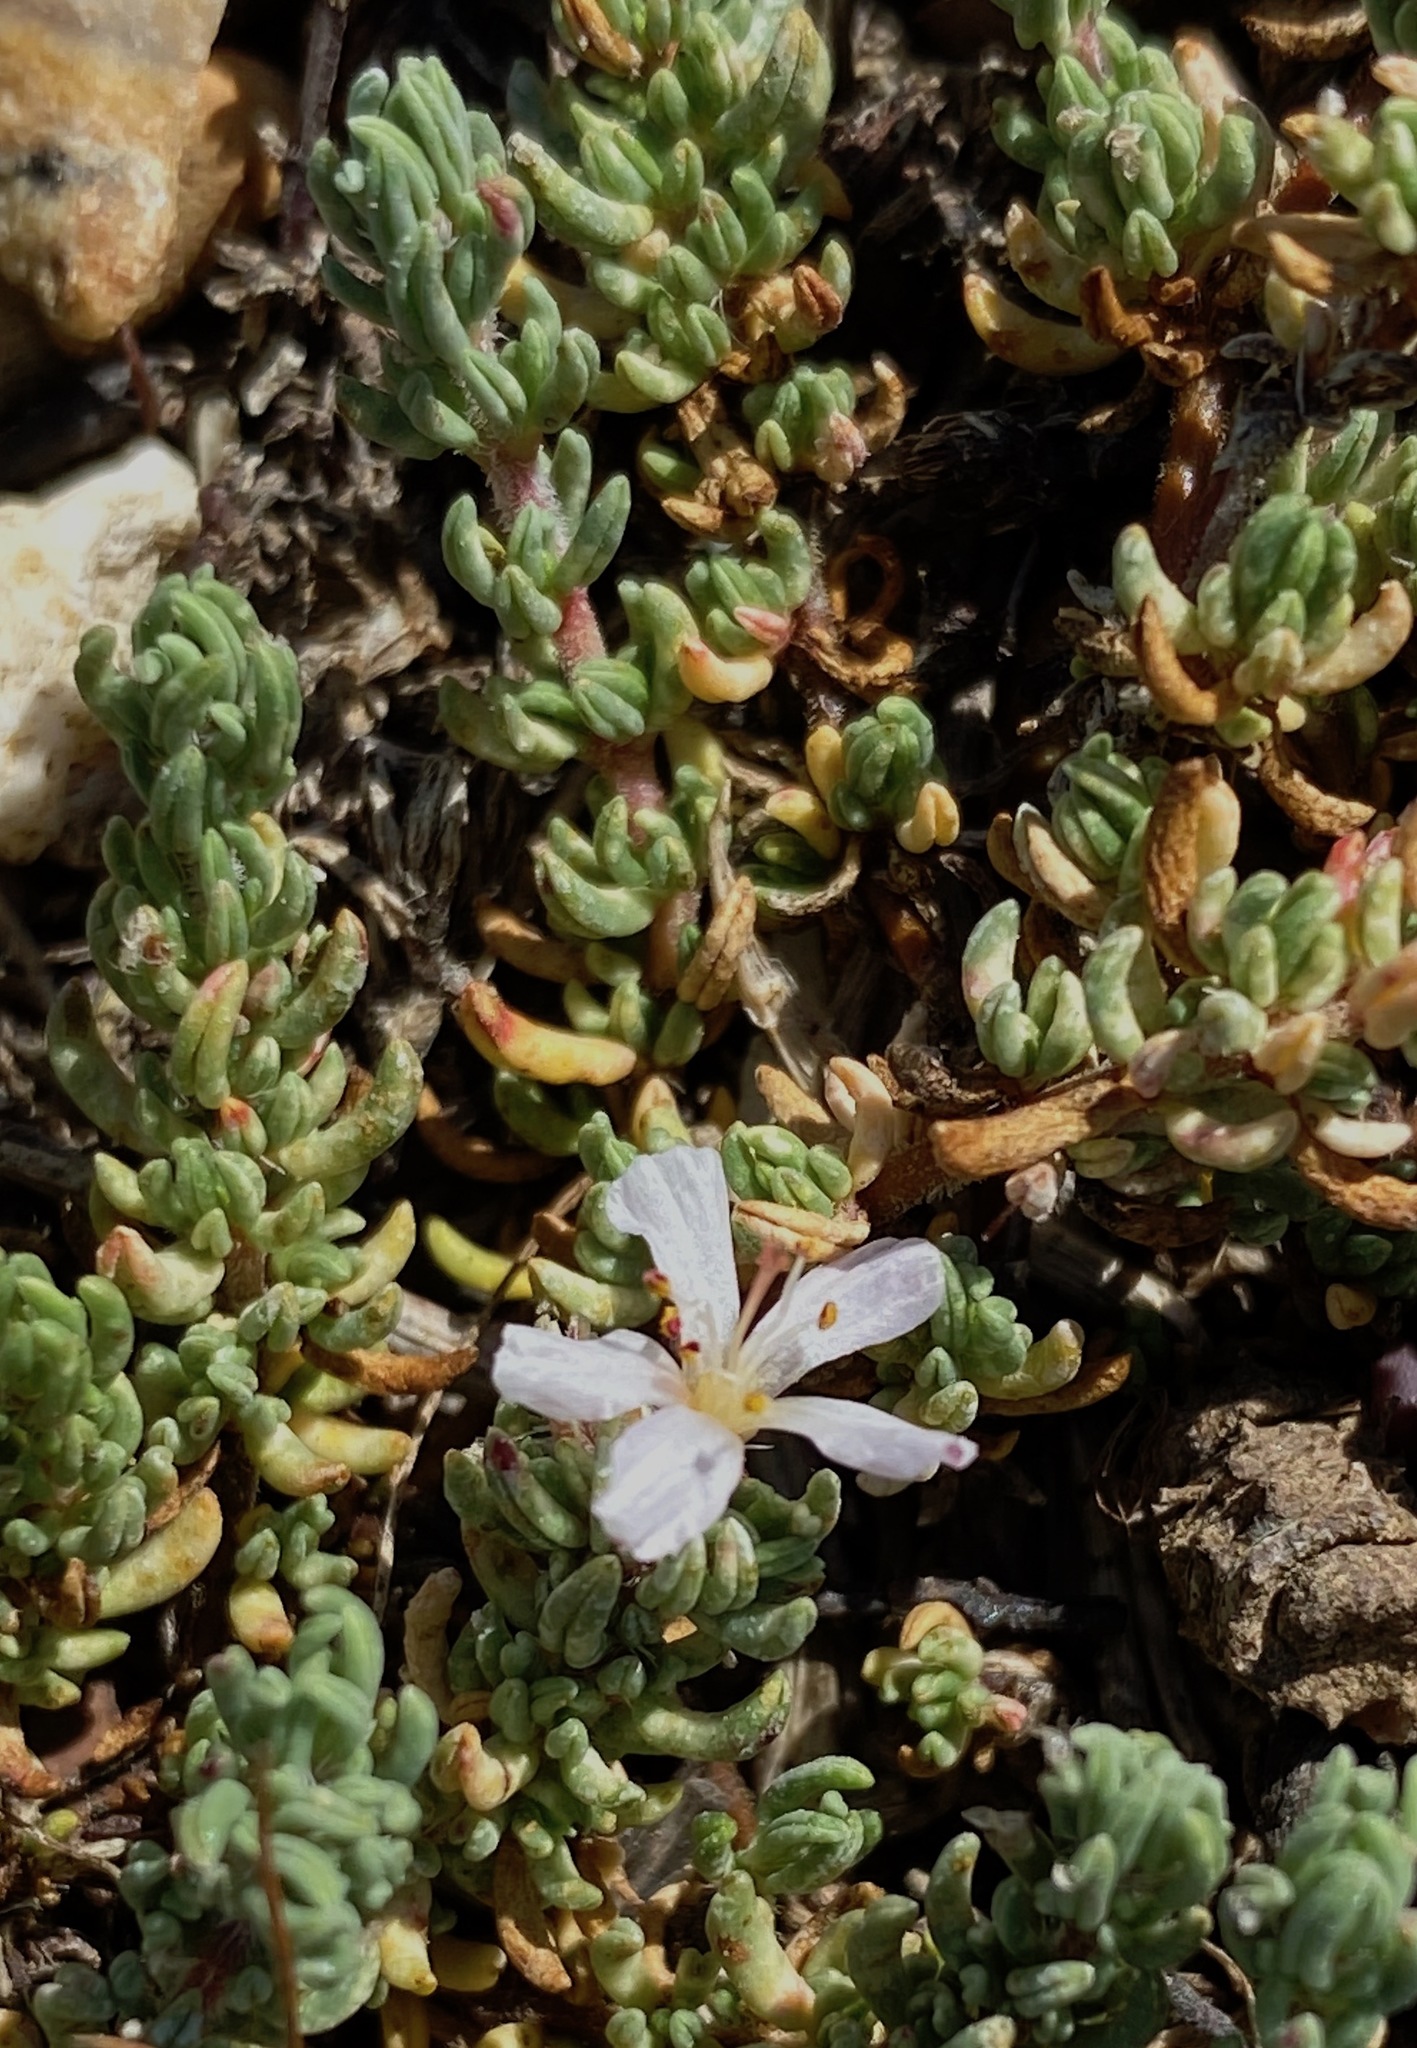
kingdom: Plantae
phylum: Tracheophyta
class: Magnoliopsida
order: Caryophyllales
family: Frankeniaceae
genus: Frankenia
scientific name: Frankenia hirsuta
